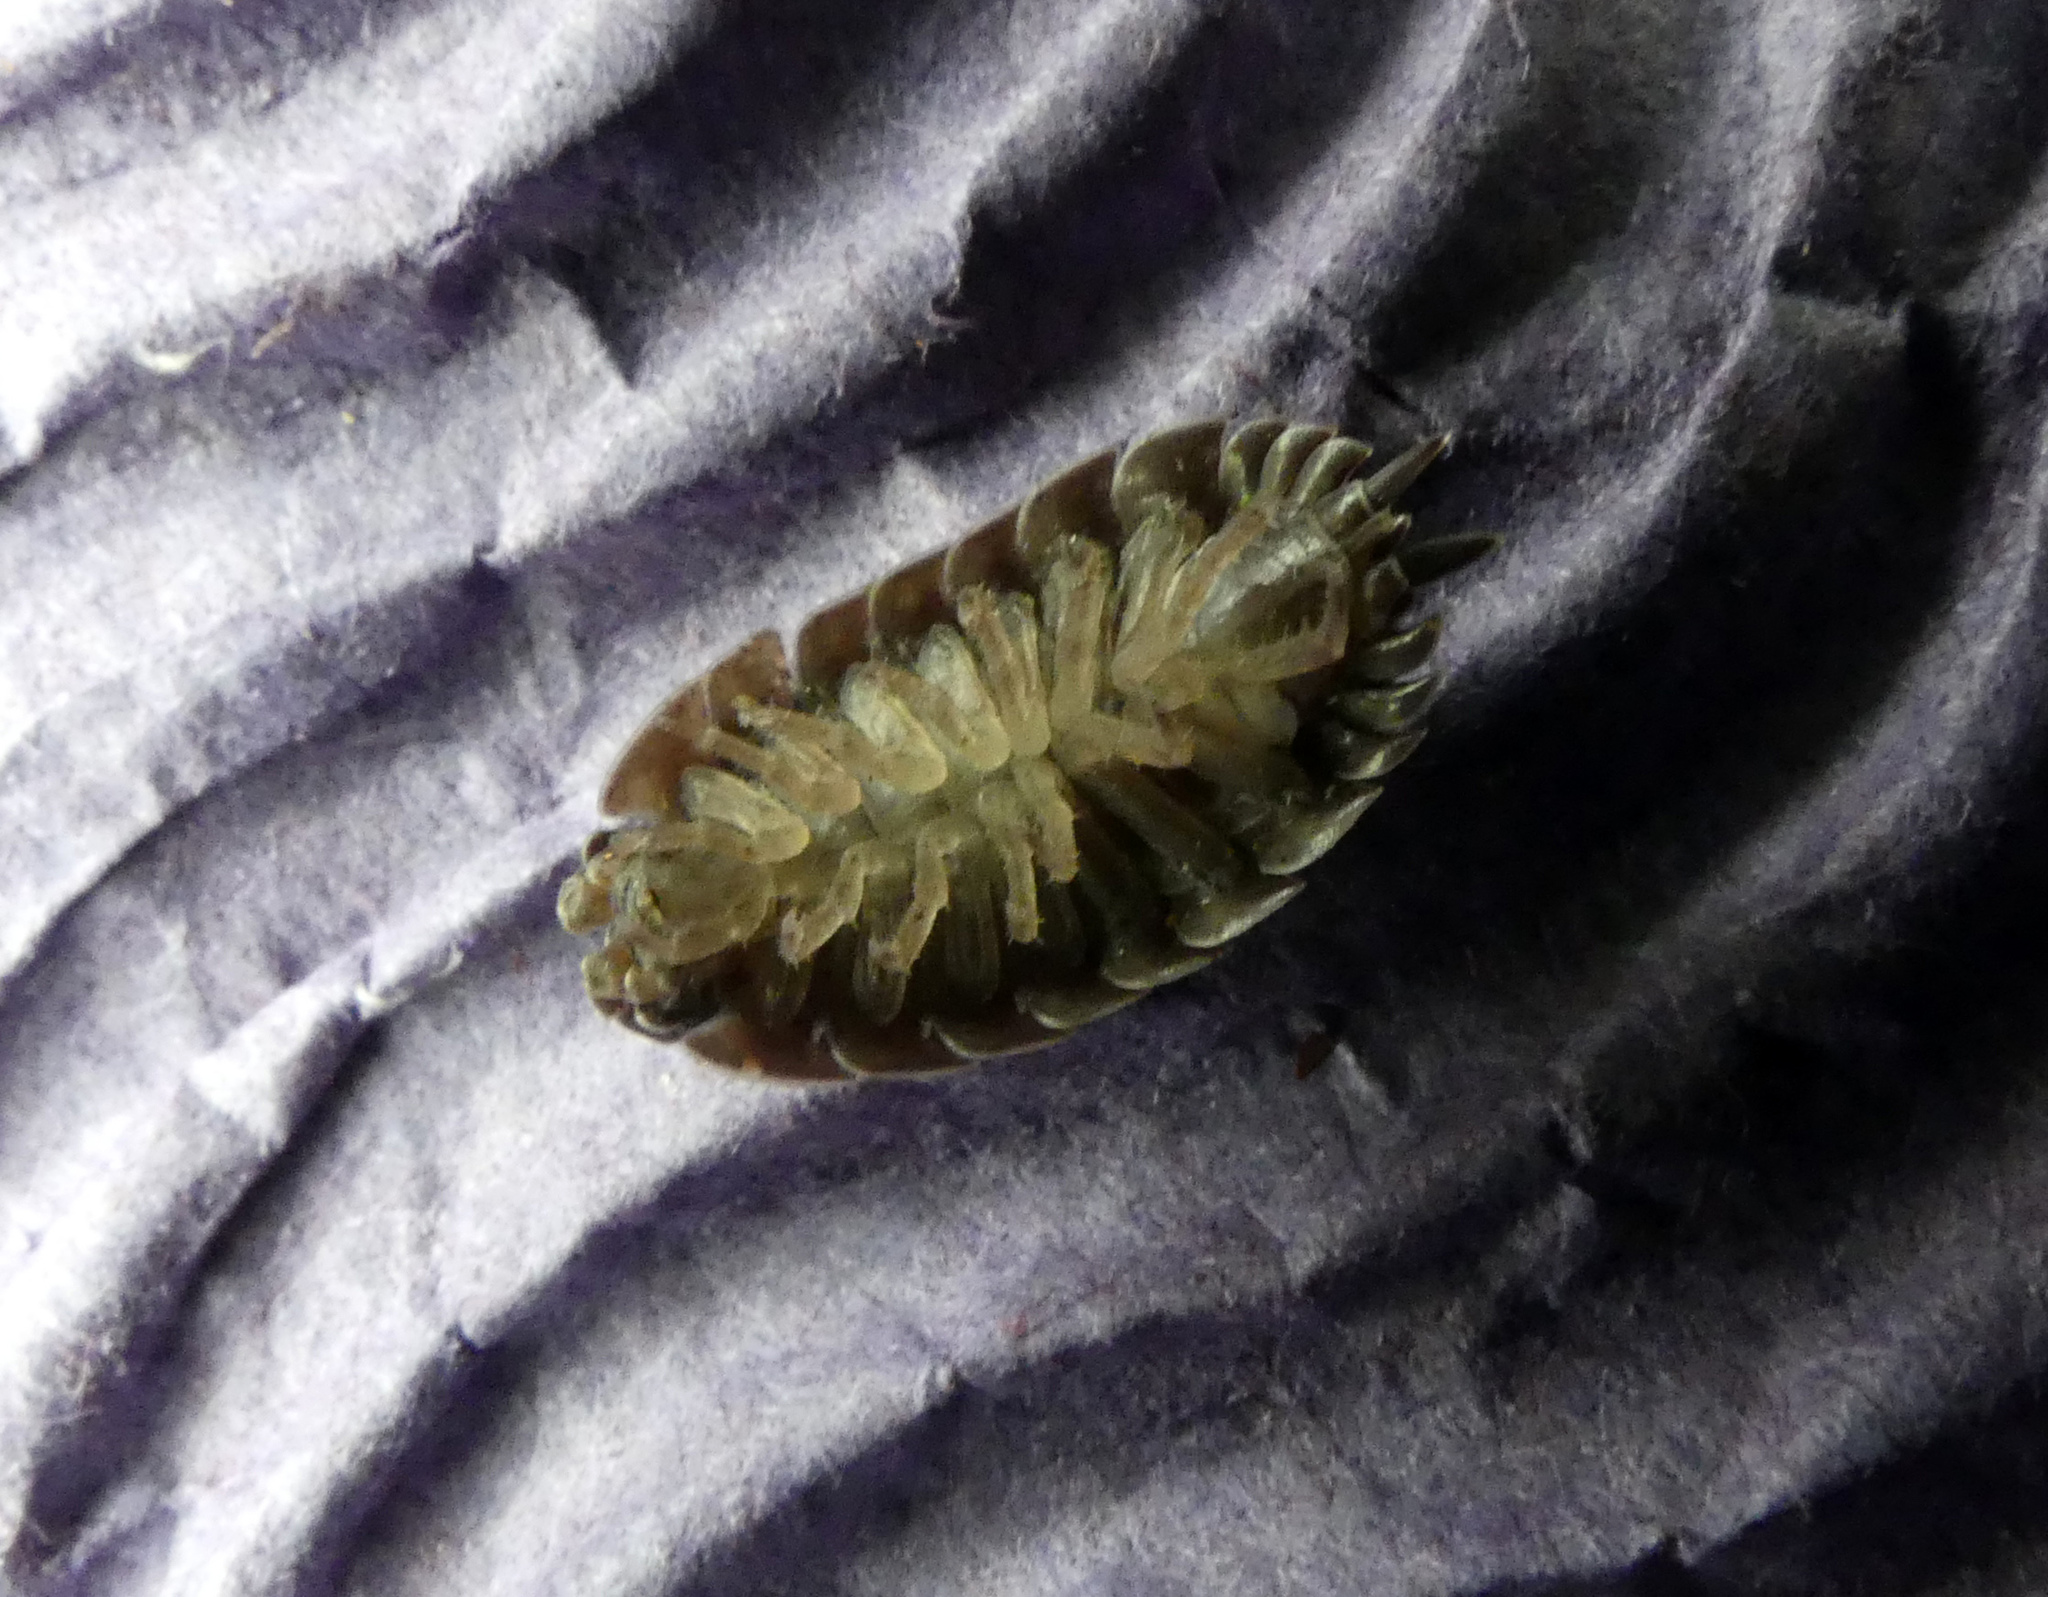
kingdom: Animalia
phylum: Arthropoda
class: Malacostraca
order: Isopoda
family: Porcellionidae
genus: Porcellio
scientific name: Porcellio scaber
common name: Common rough woodlouse
